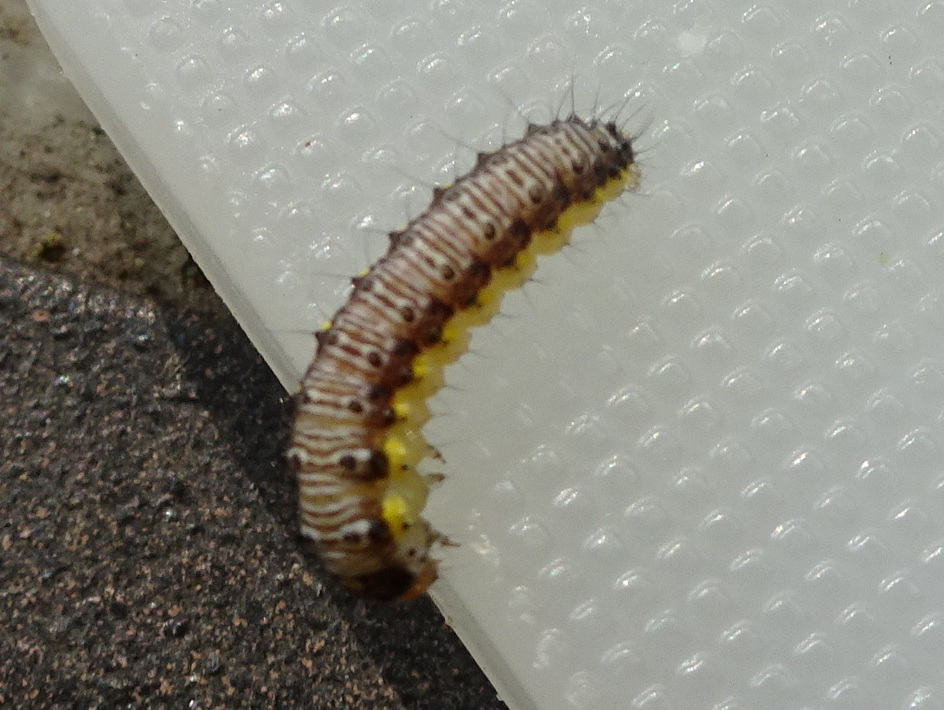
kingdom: Animalia
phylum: Arthropoda
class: Insecta
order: Lepidoptera
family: Crambidae
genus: Evergestis
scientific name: Evergestis rimosalis
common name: Cross-striped cabbageworm moth
